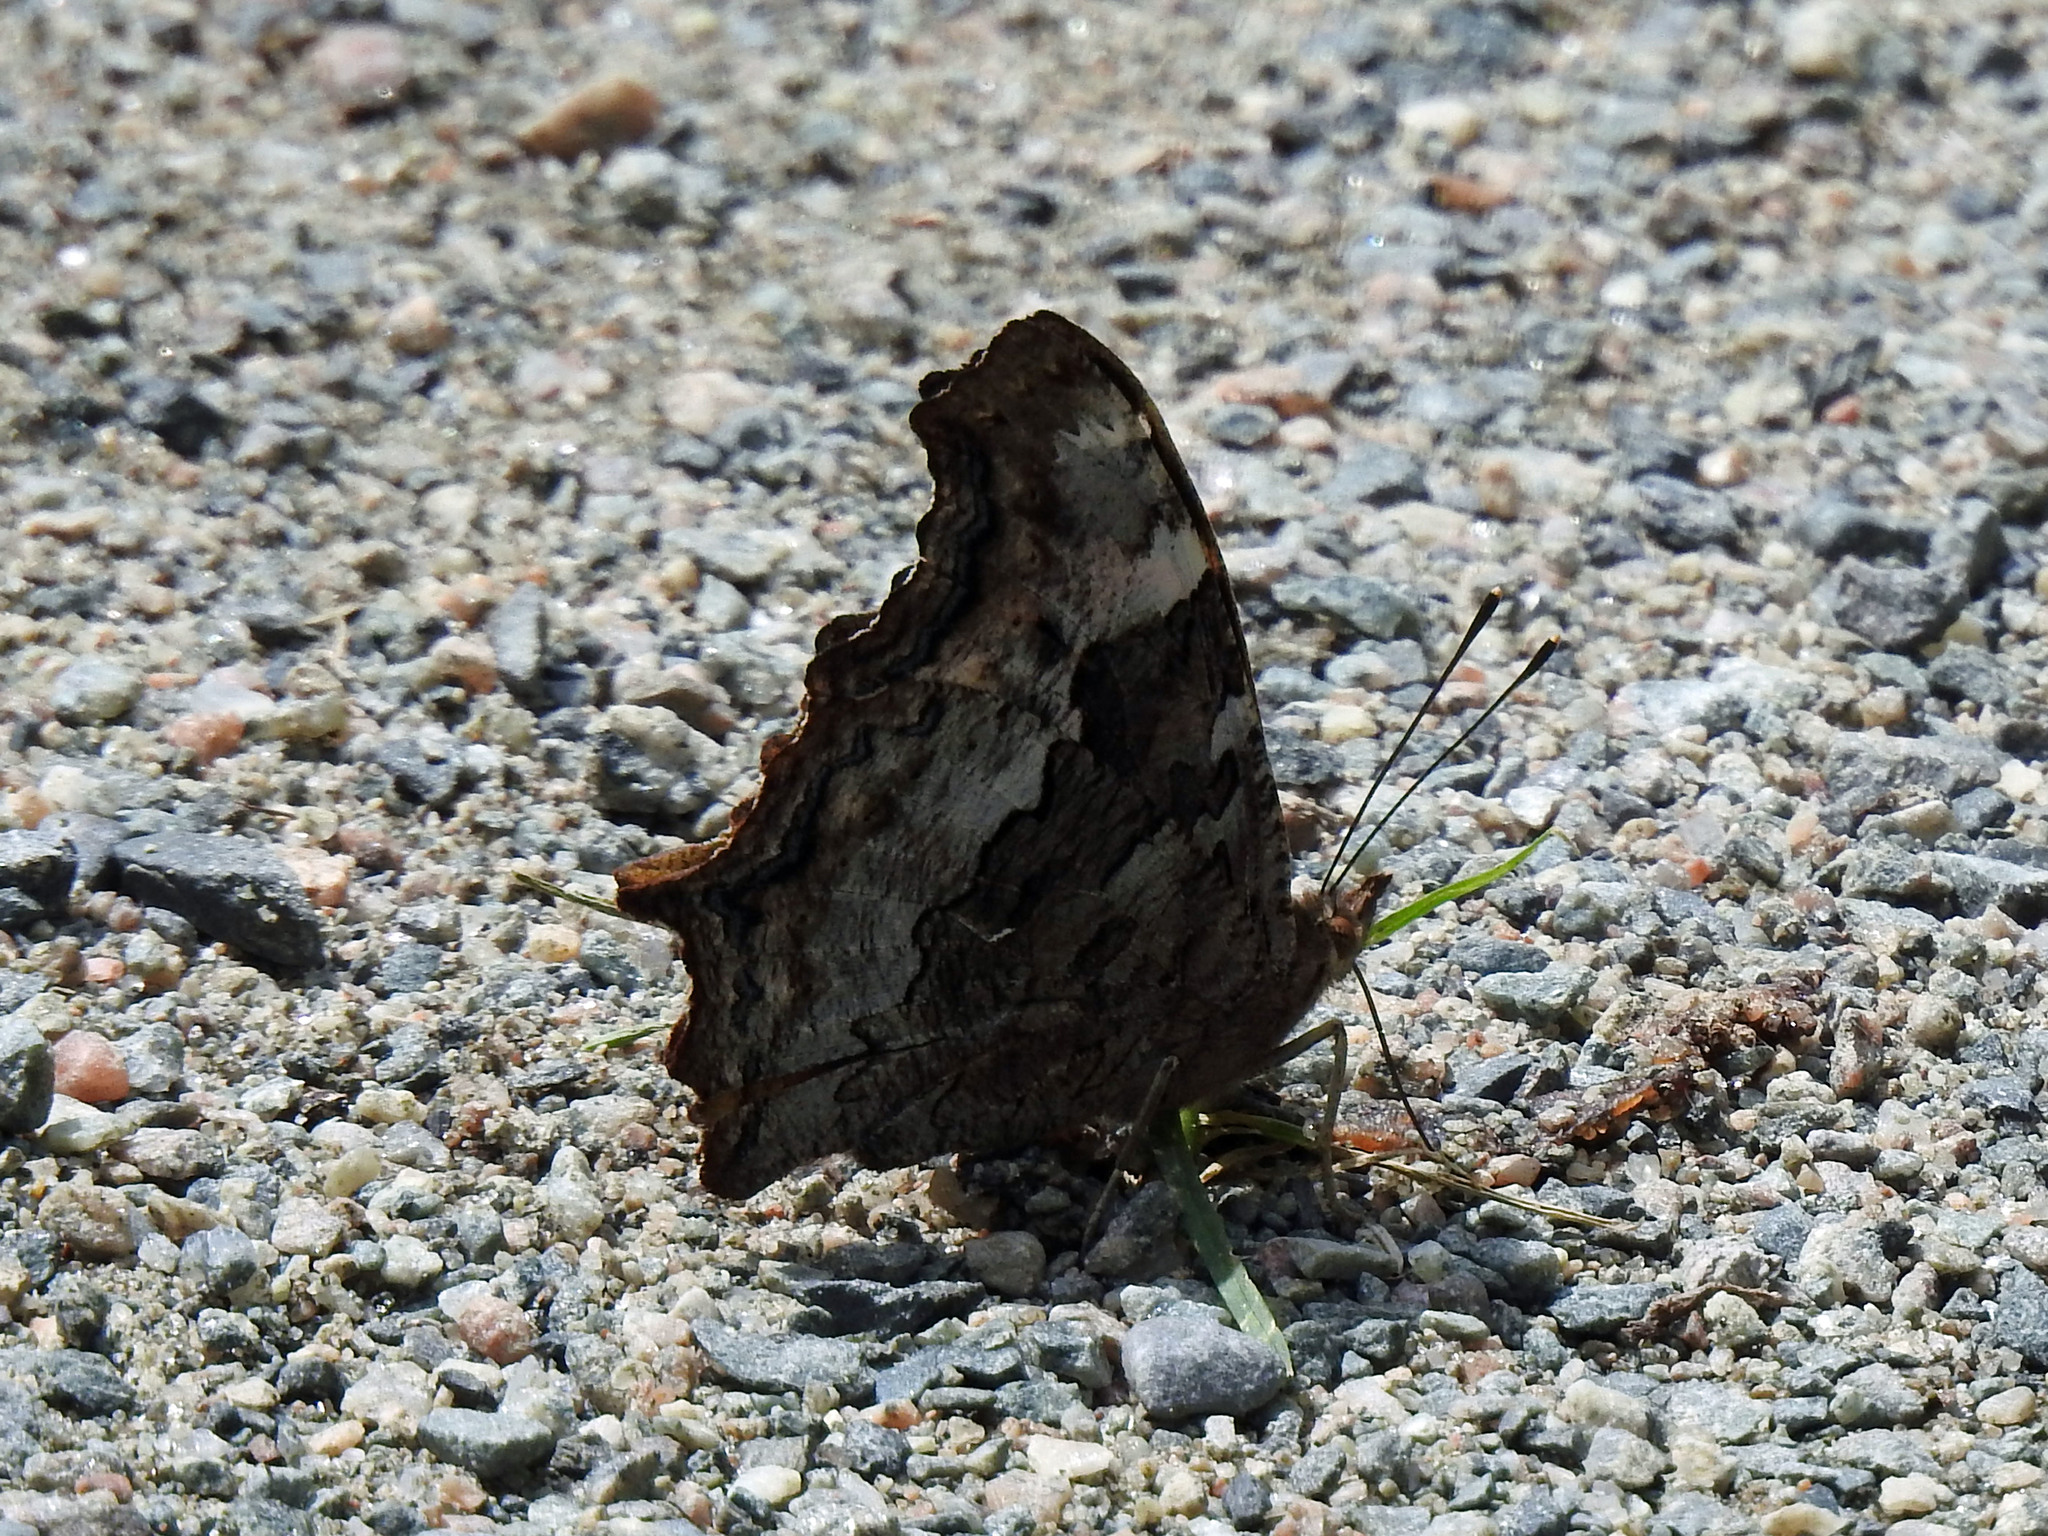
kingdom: Animalia
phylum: Arthropoda
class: Insecta
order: Lepidoptera
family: Nymphalidae
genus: Polygonia
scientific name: Polygonia vaualbum
